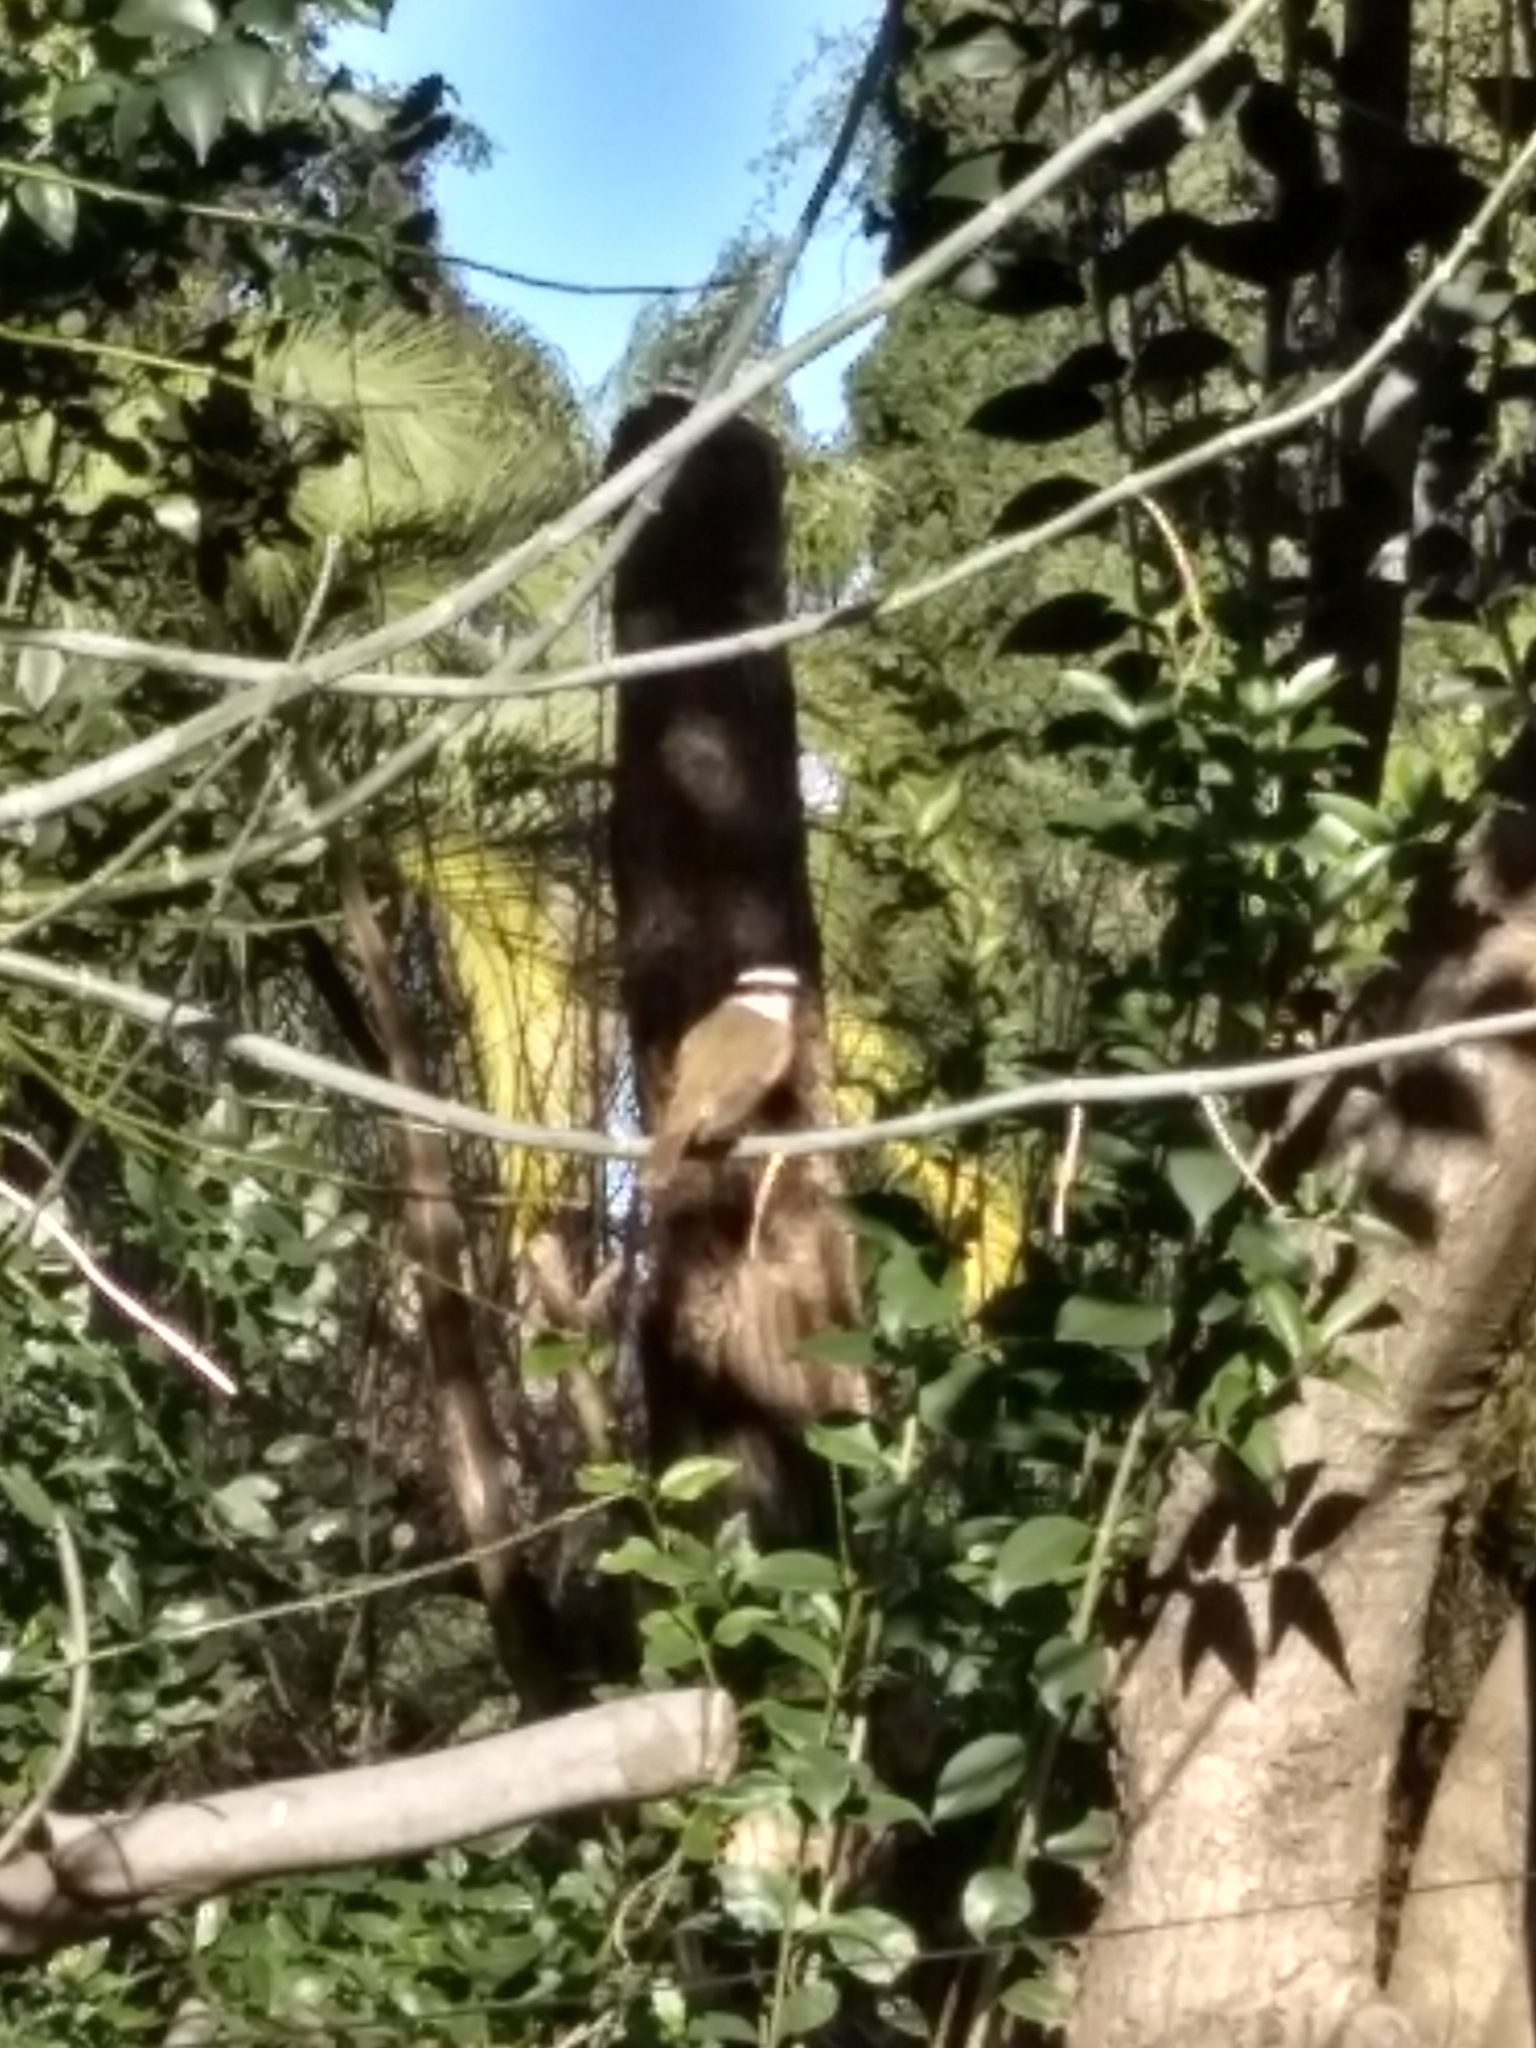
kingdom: Animalia
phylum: Chordata
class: Aves
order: Passeriformes
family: Tyrannidae
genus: Pitangus
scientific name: Pitangus sulphuratus
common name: Great kiskadee
